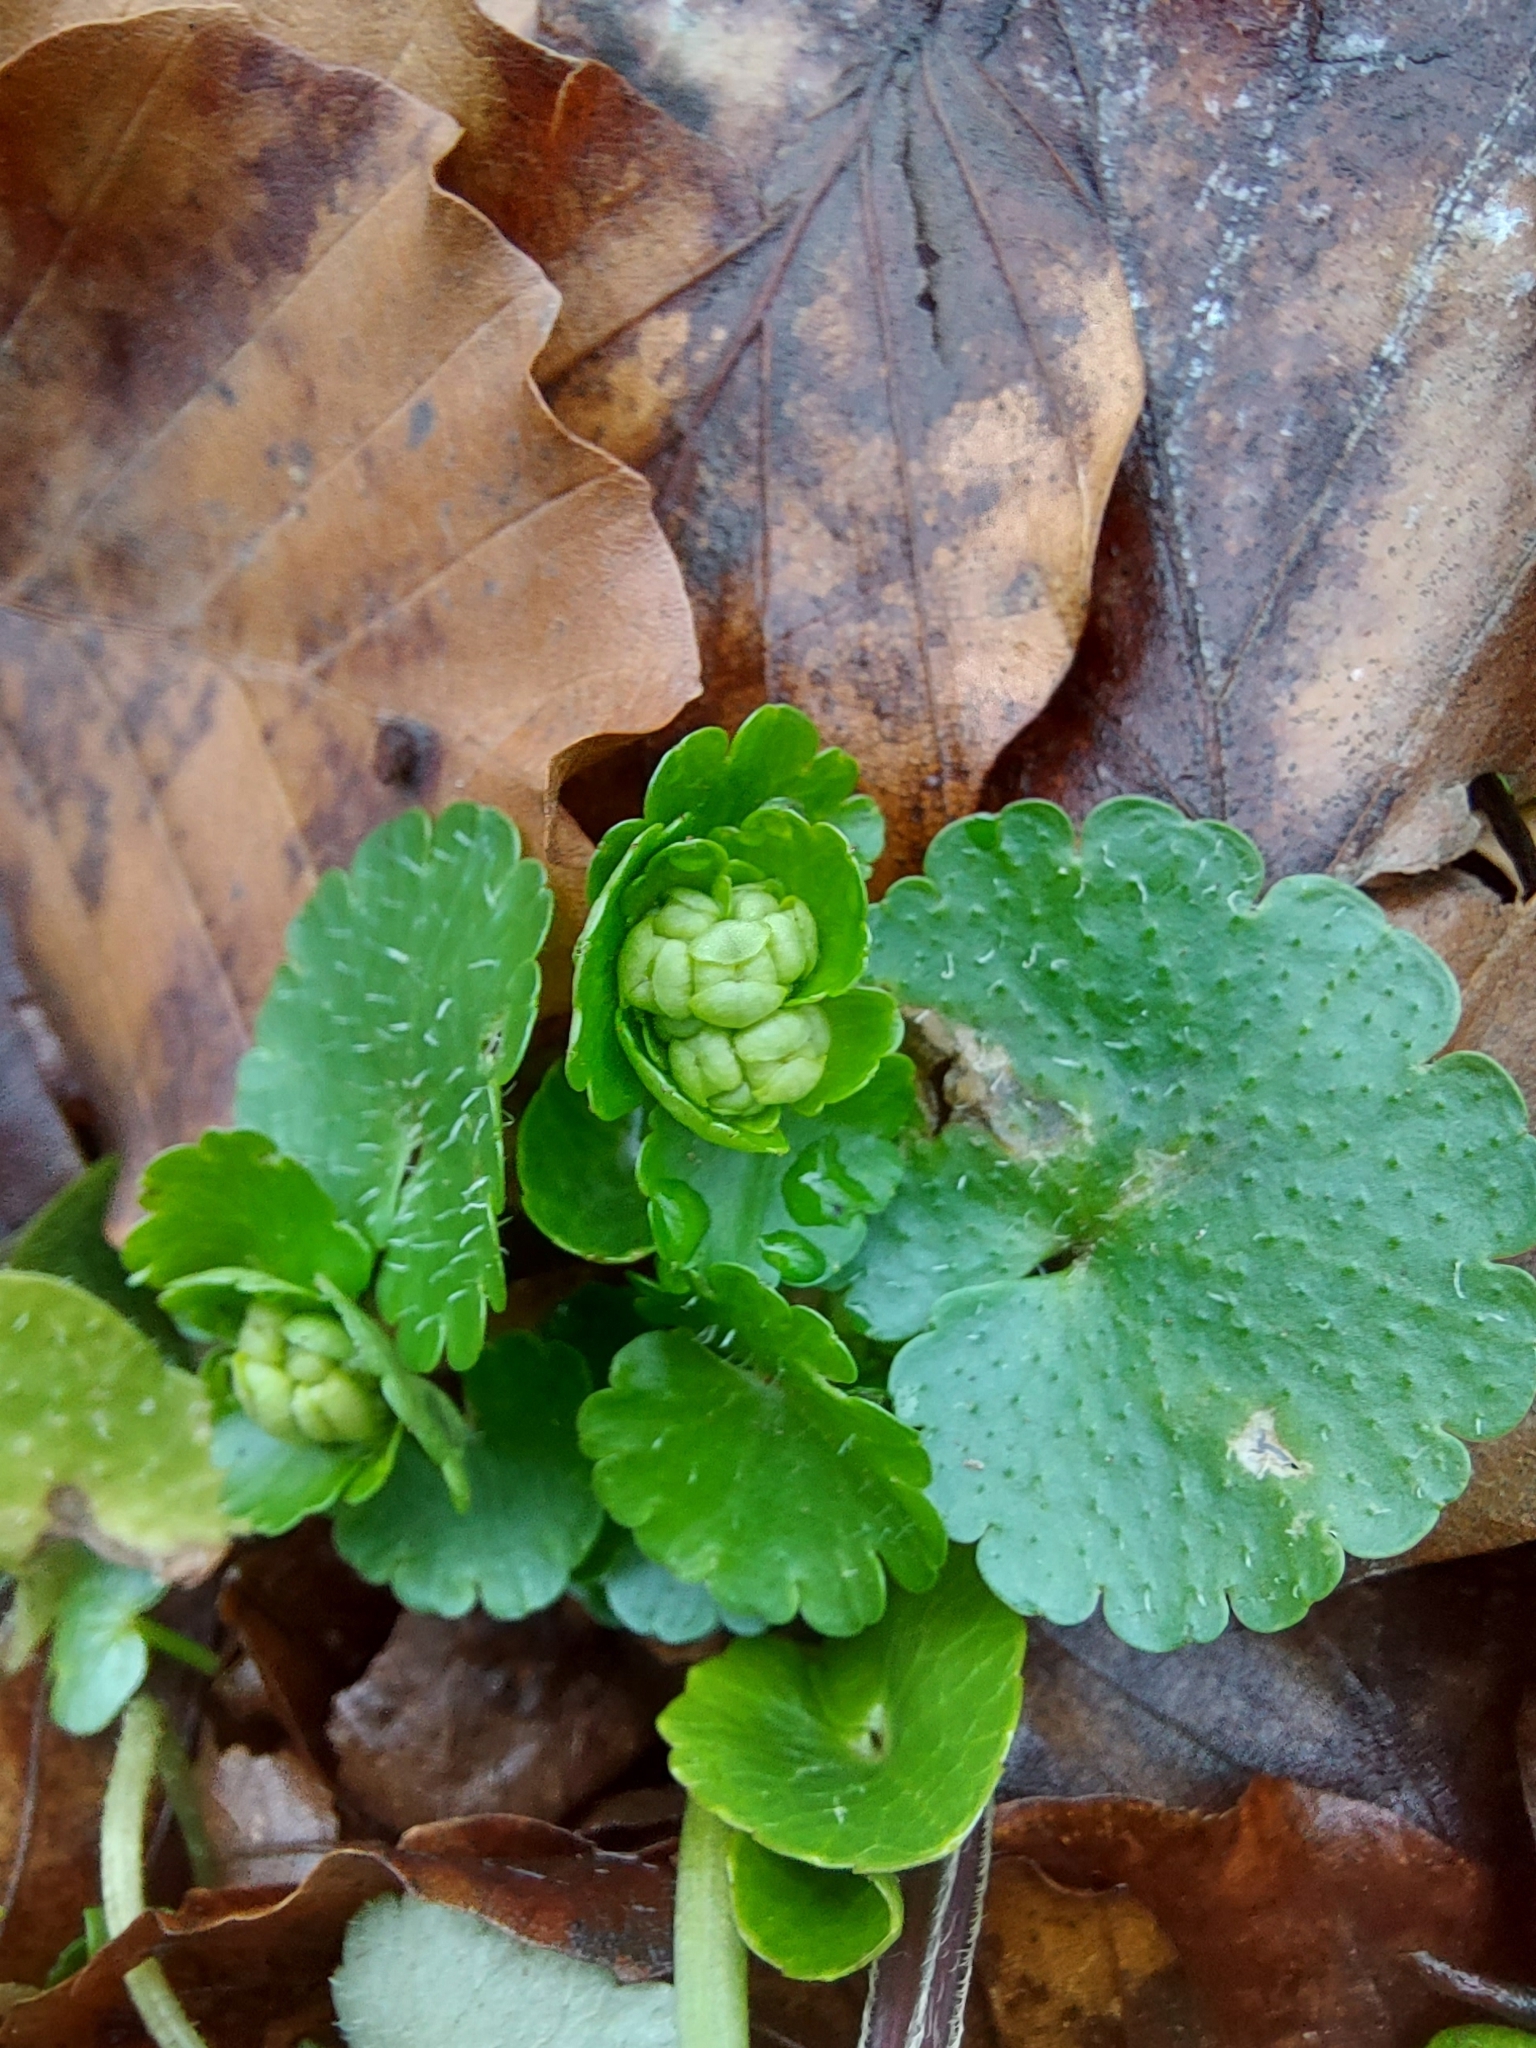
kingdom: Plantae
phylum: Tracheophyta
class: Magnoliopsida
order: Saxifragales
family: Saxifragaceae
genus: Chrysosplenium
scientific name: Chrysosplenium alternifolium
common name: Alternate-leaved golden-saxifrage
